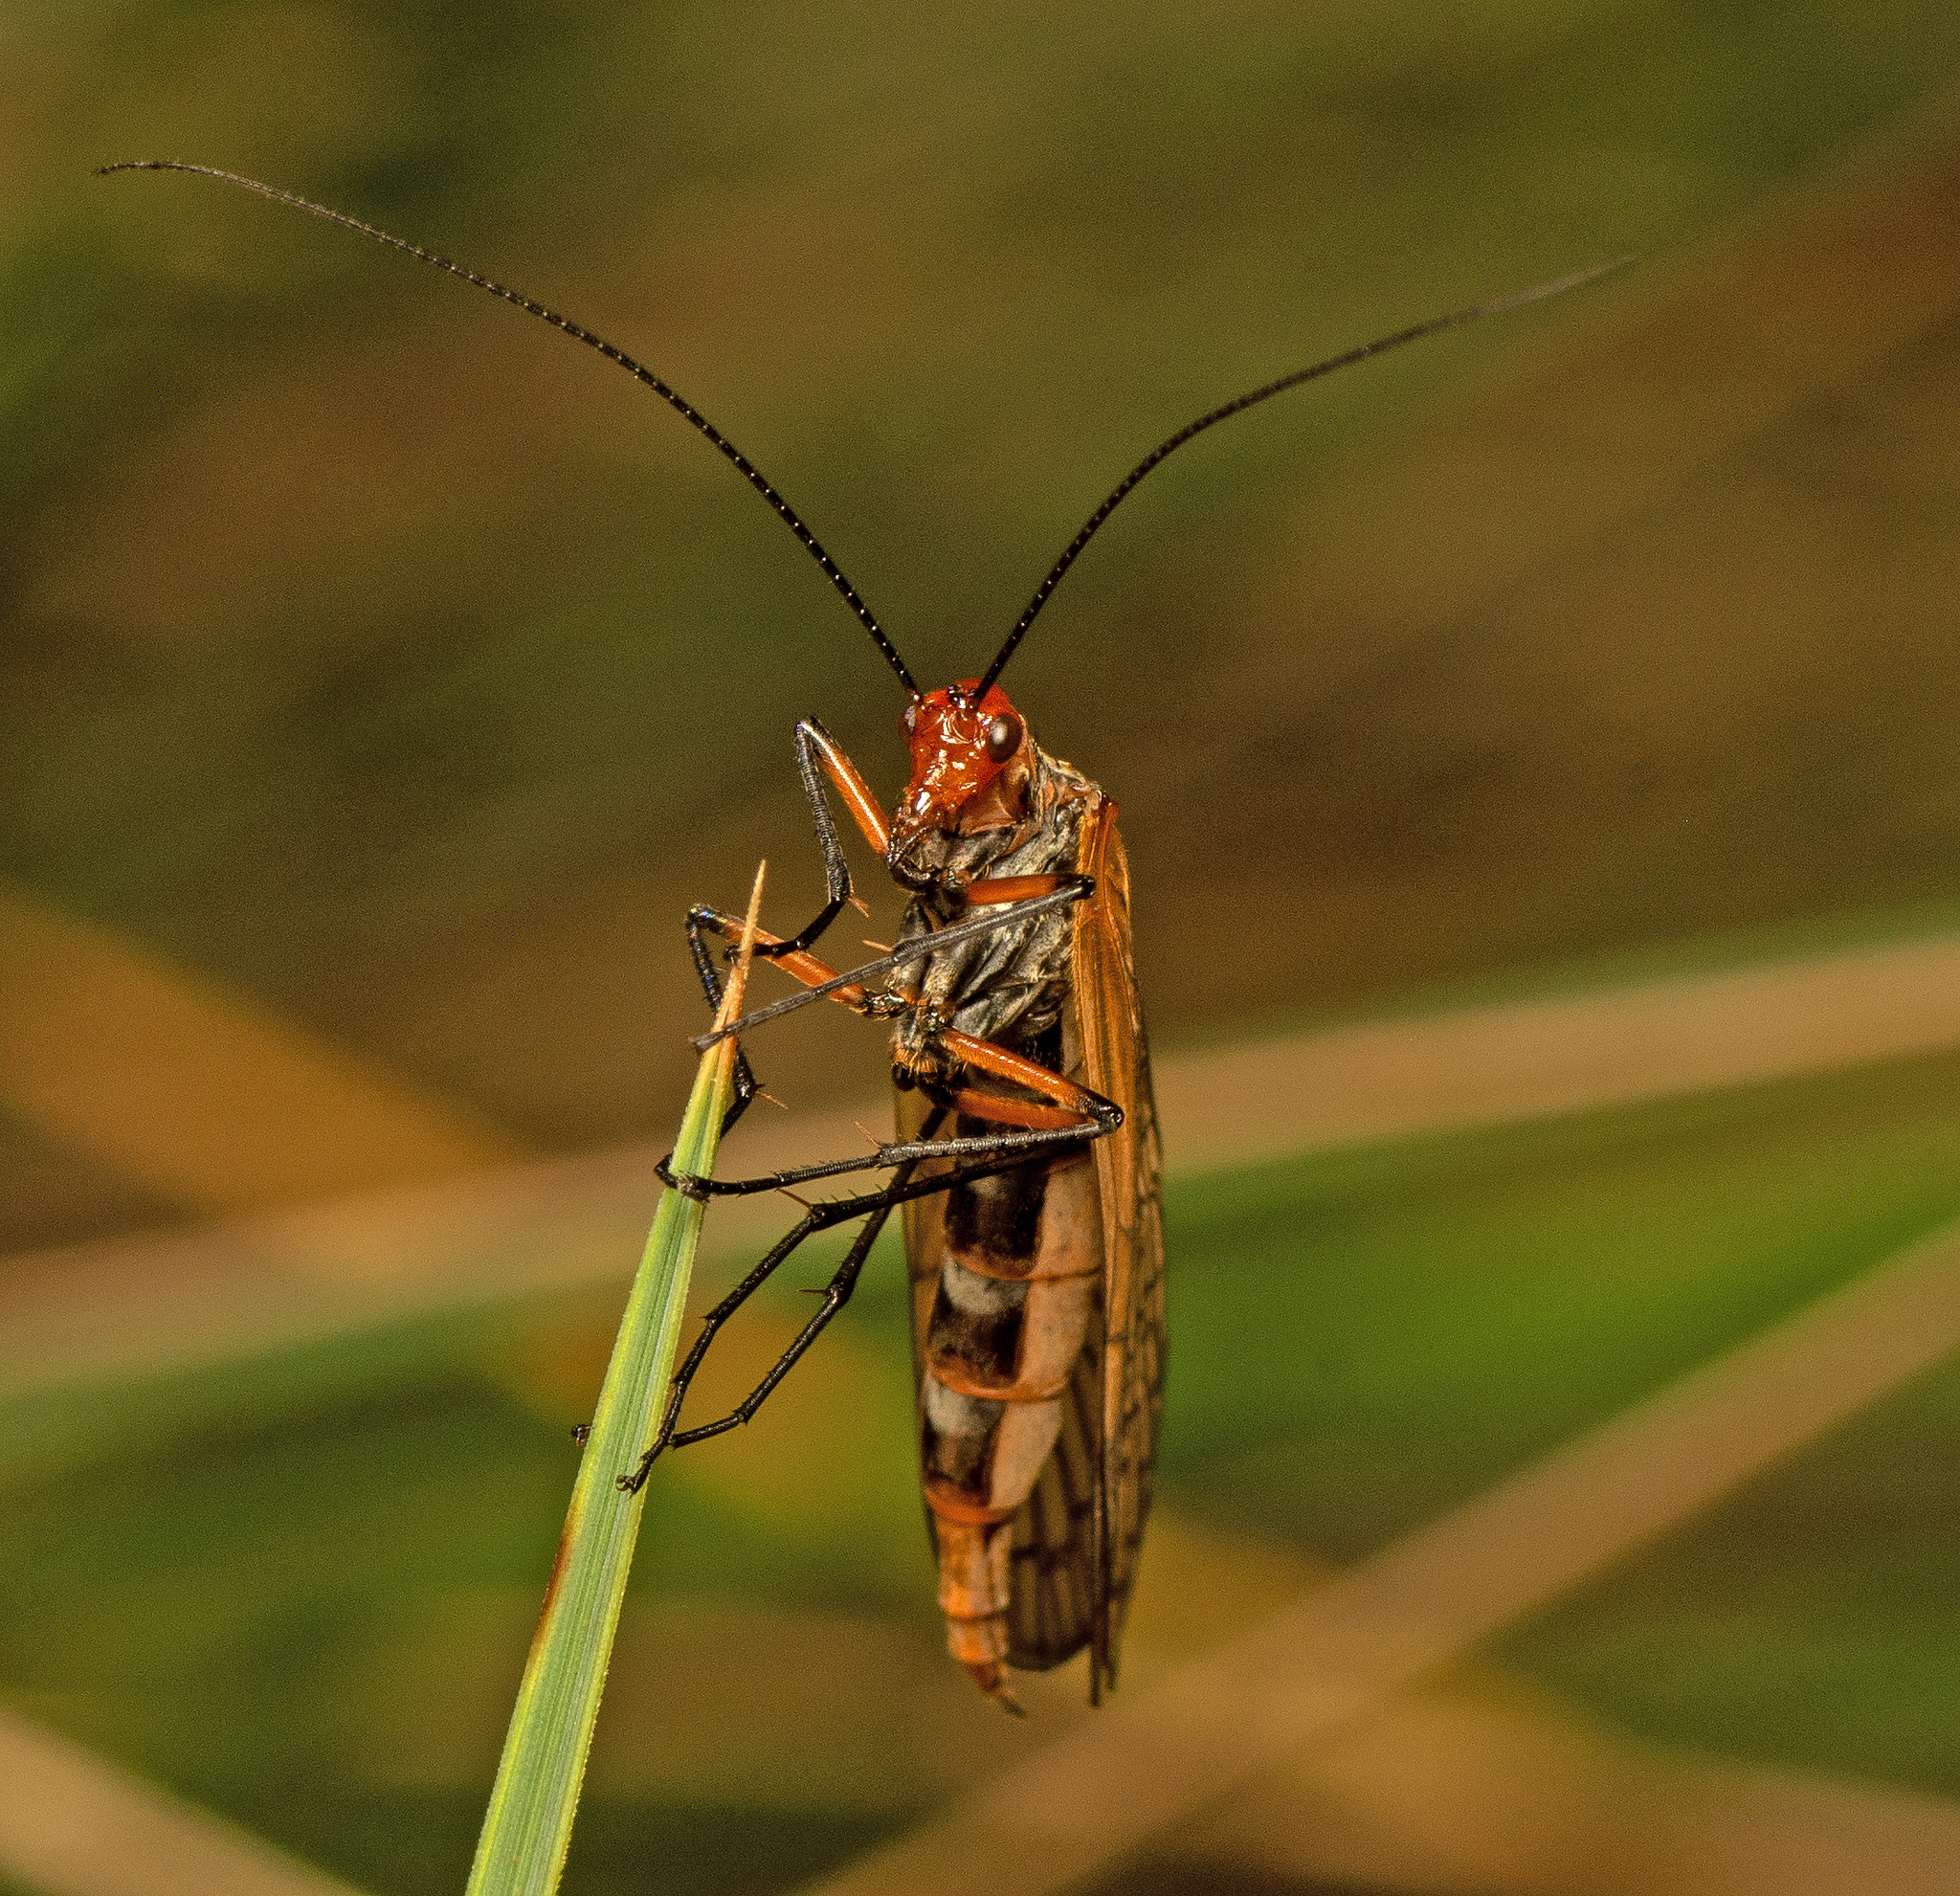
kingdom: Animalia
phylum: Arthropoda
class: Insecta
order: Mecoptera
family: Choristidae
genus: Chorista
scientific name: Chorista australis
